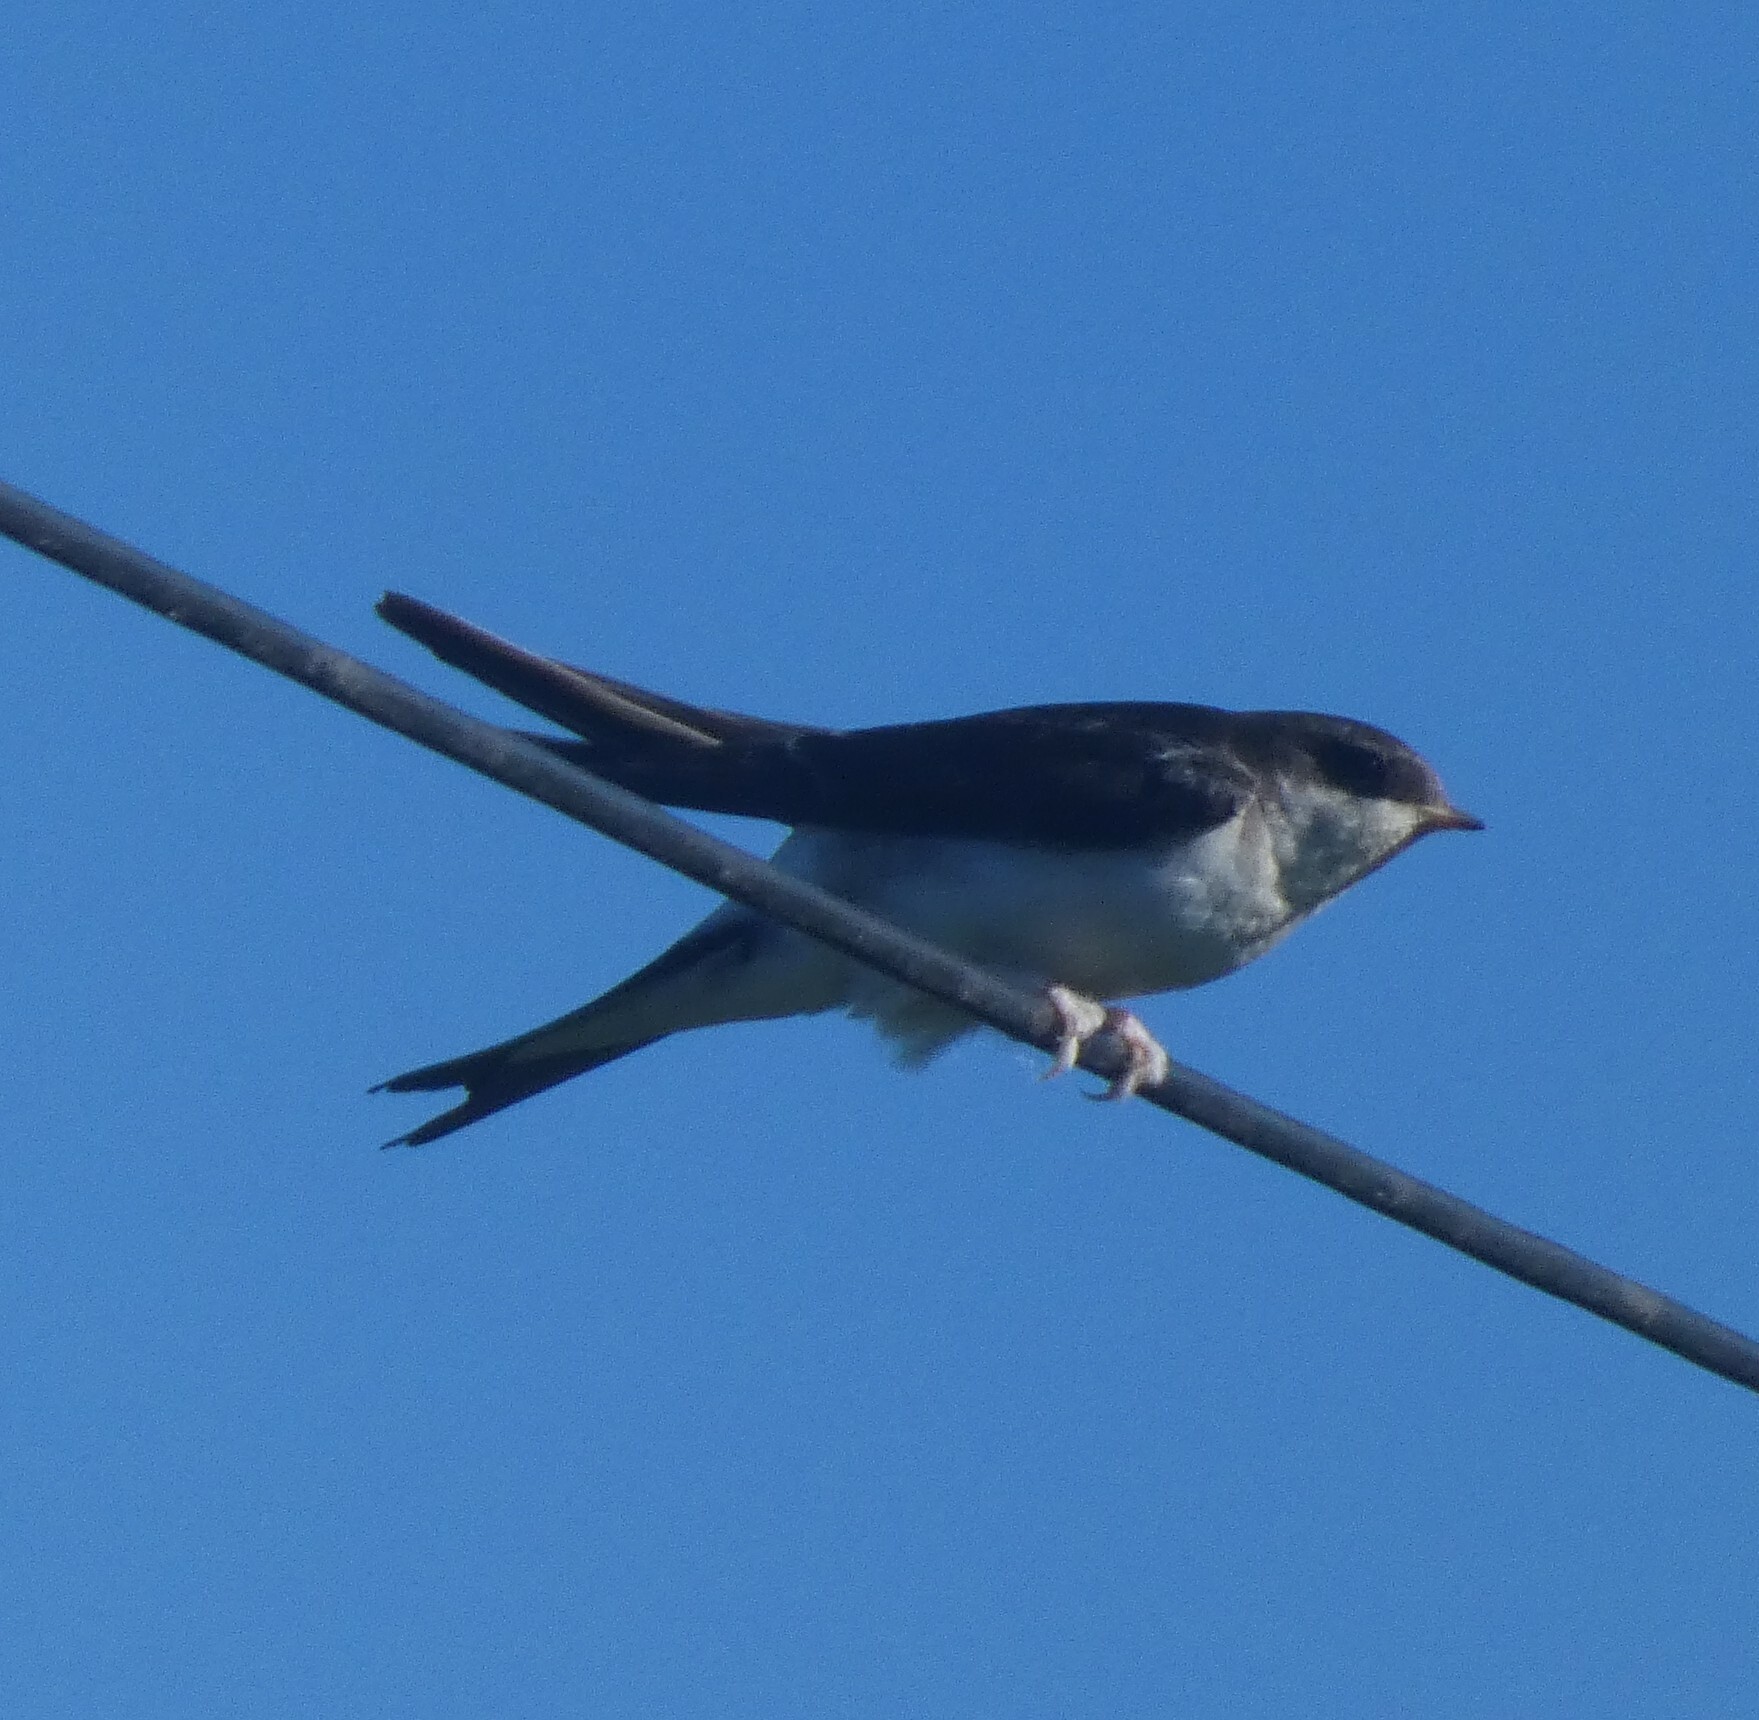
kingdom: Animalia
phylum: Chordata
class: Aves
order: Passeriformes
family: Hirundinidae
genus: Delichon
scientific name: Delichon urbicum
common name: Common house martin
